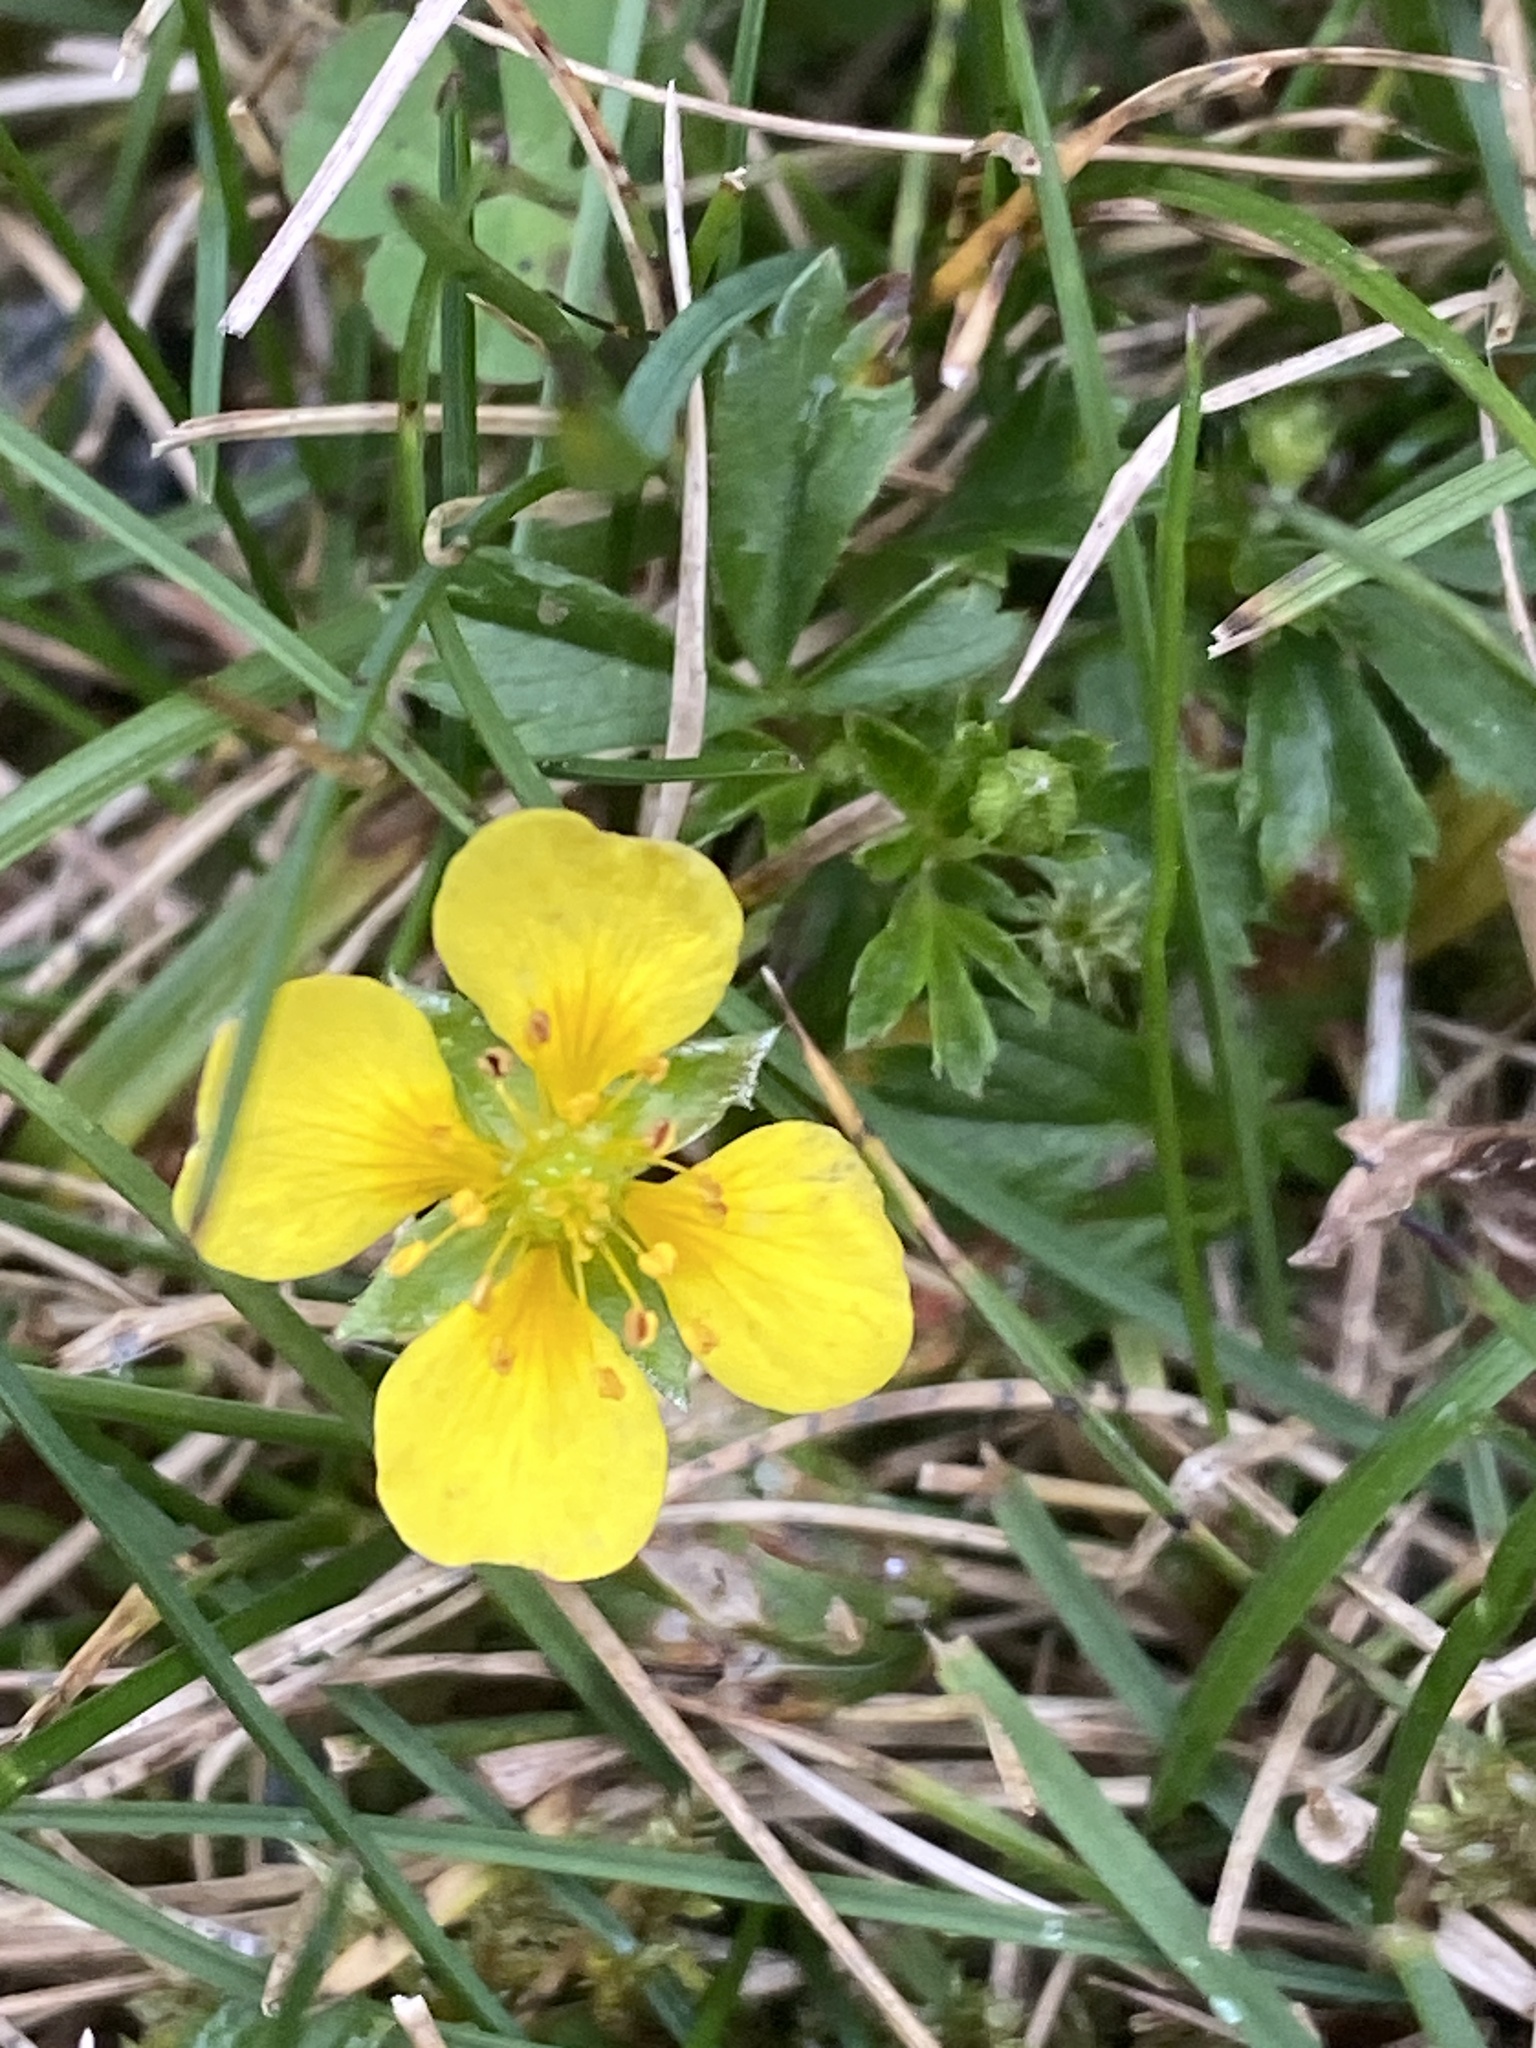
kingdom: Plantae
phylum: Tracheophyta
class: Magnoliopsida
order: Rosales
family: Rosaceae
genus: Potentilla
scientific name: Potentilla erecta
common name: Tormentil
